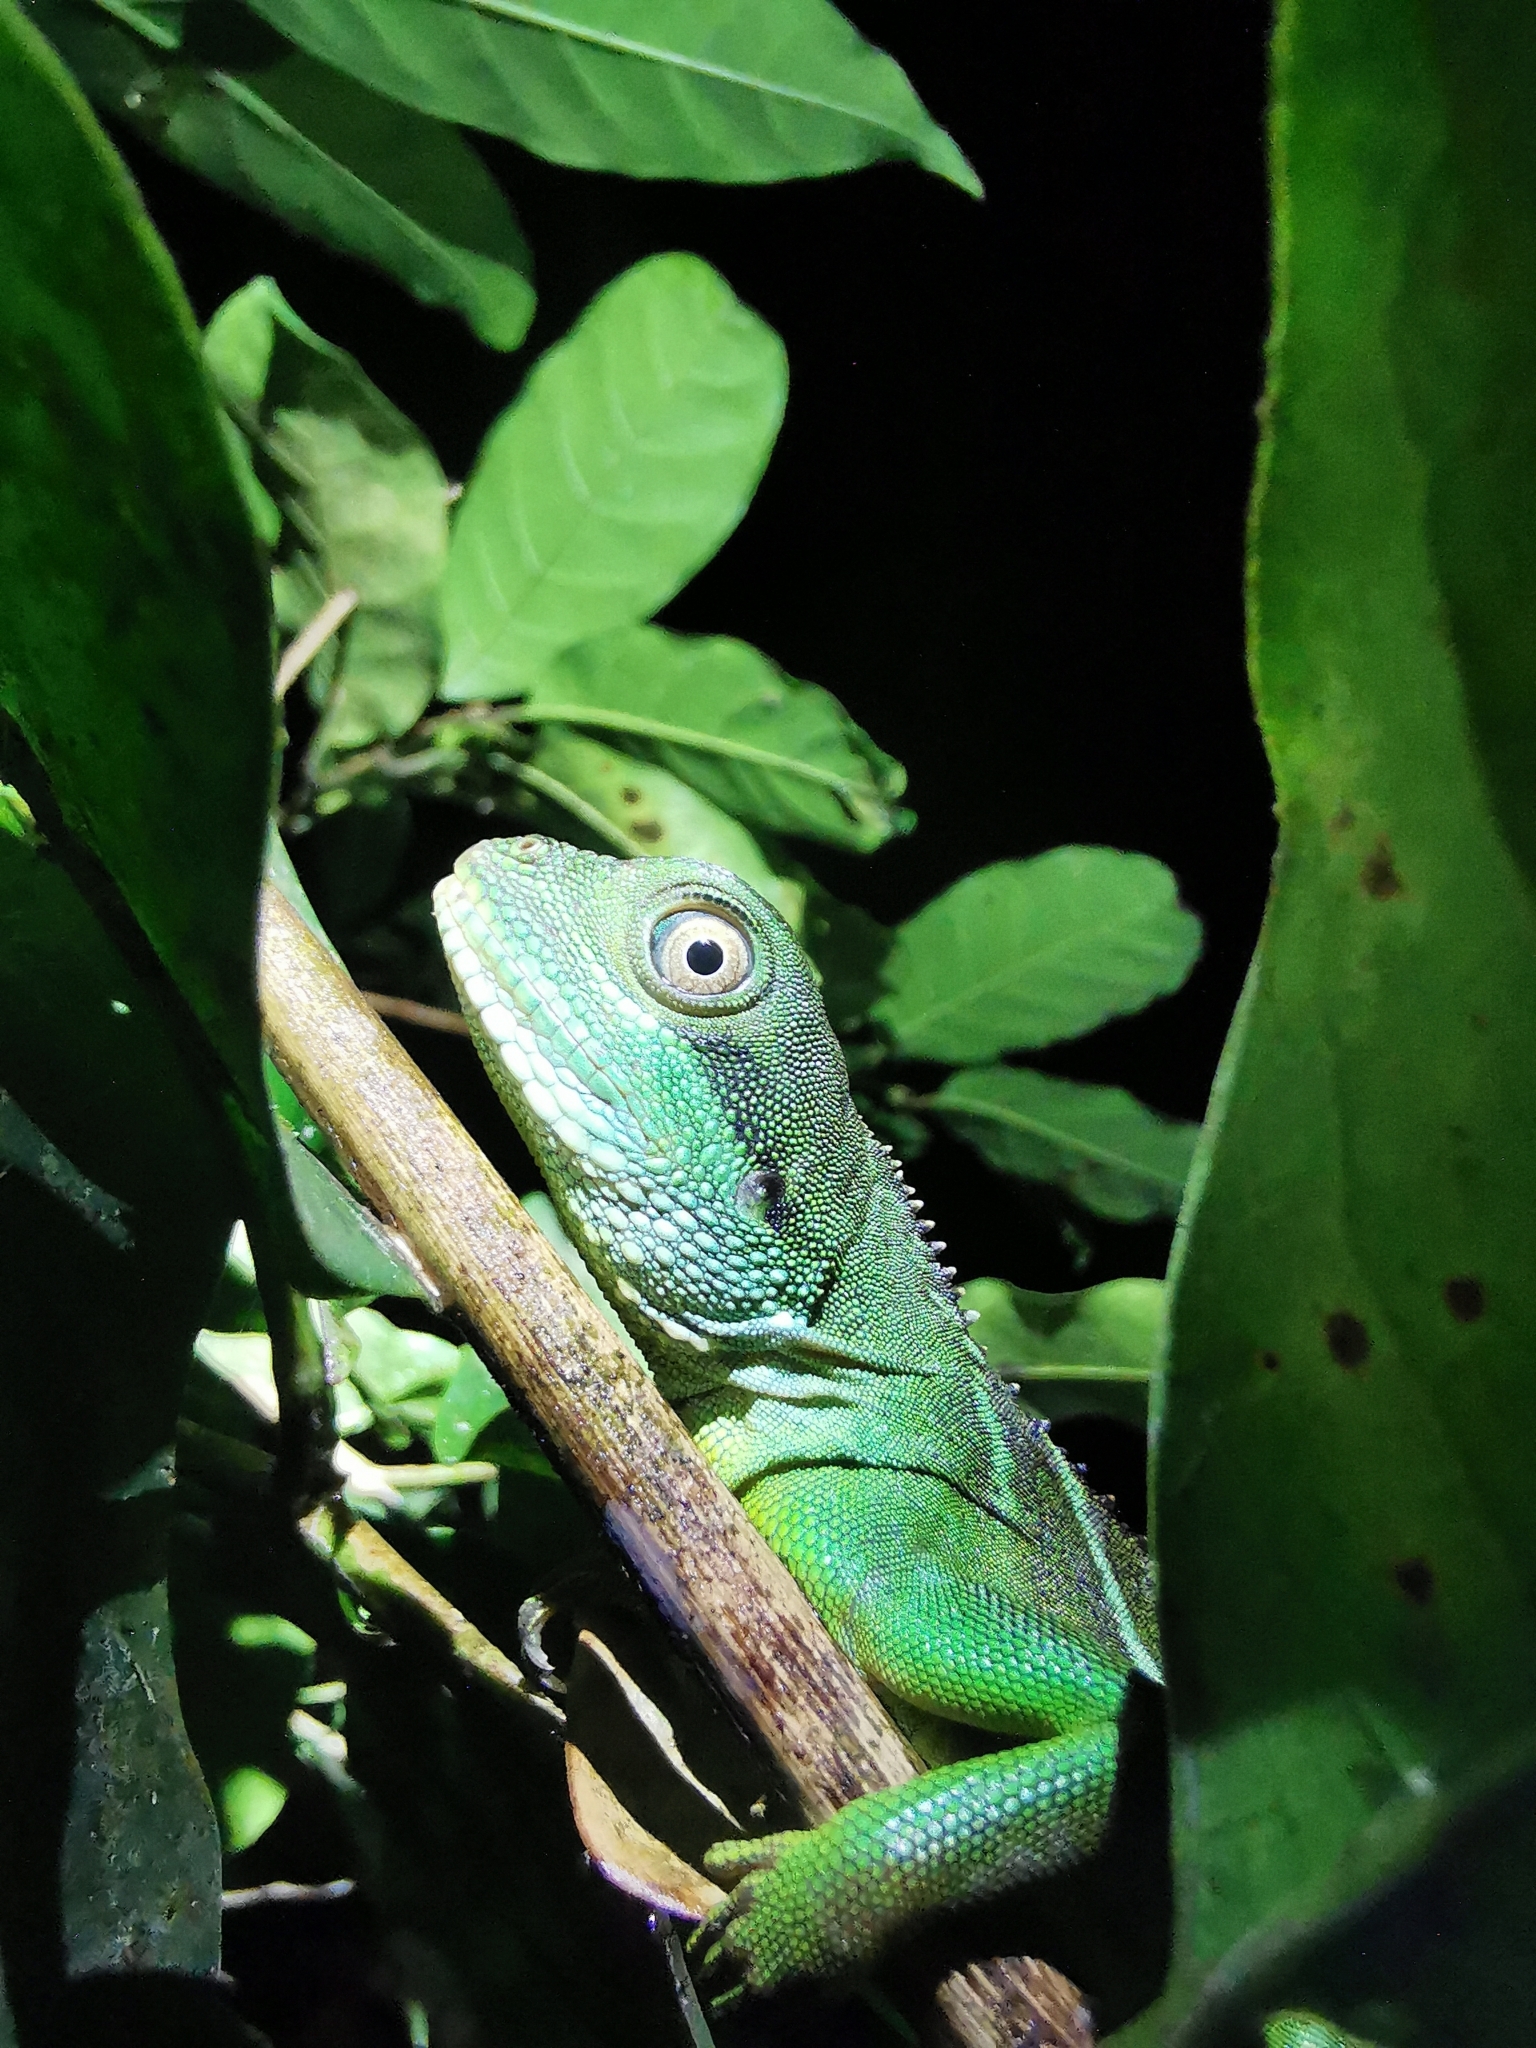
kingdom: Animalia
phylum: Chordata
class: Squamata
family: Agamidae
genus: Physignathus
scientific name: Physignathus cocincinus
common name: Asian water dragon
